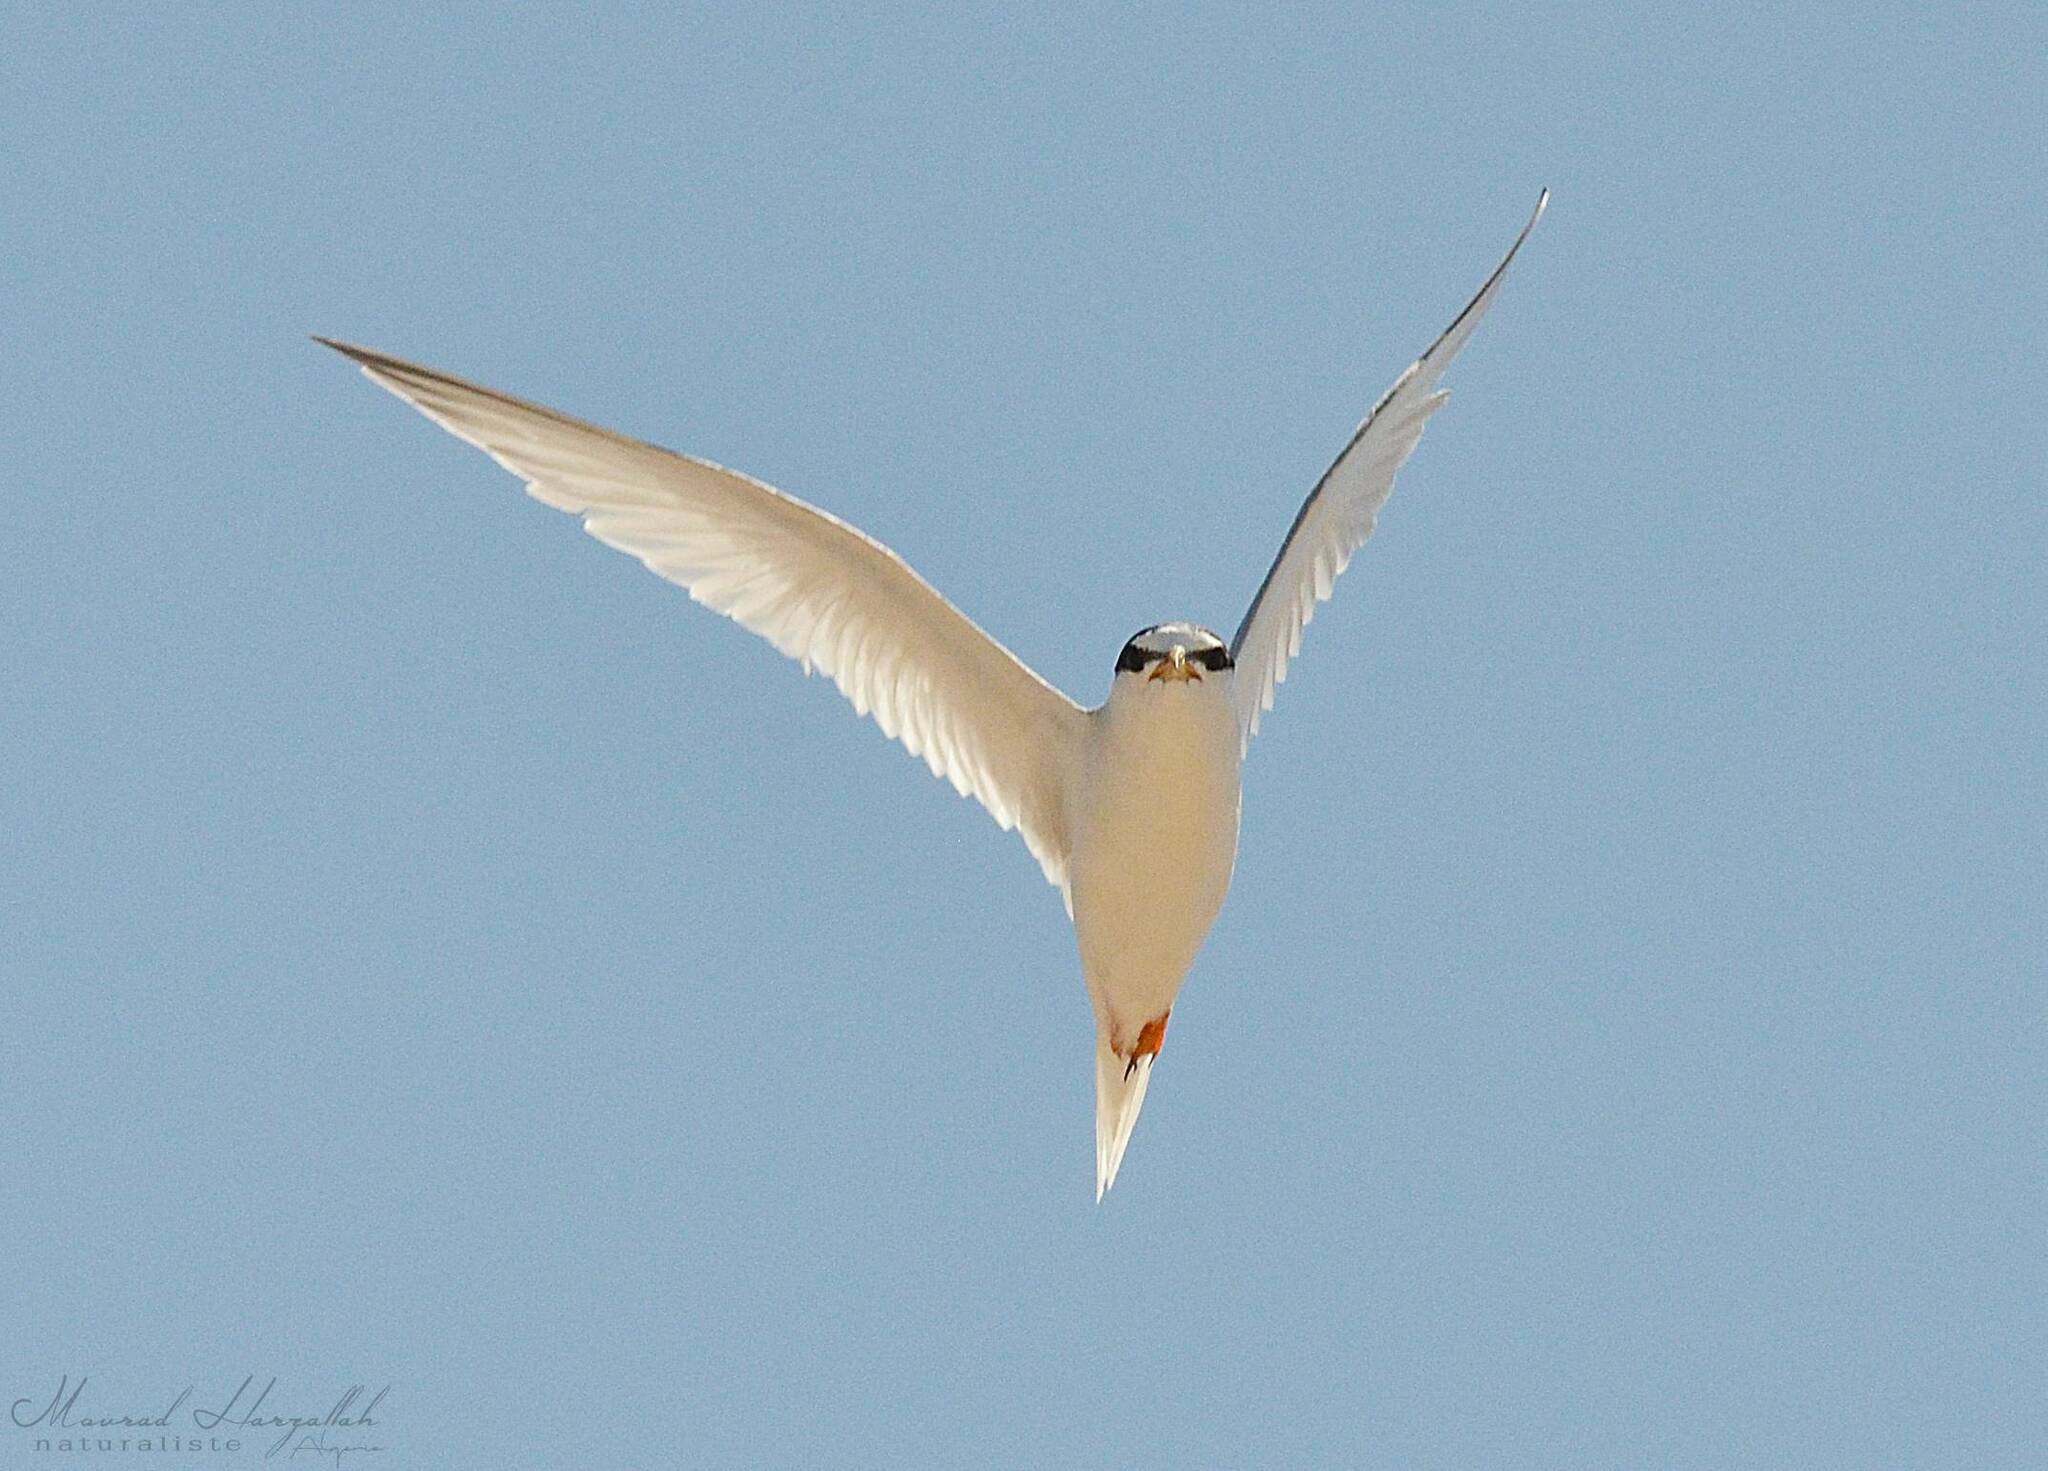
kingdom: Animalia
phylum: Chordata
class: Aves
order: Charadriiformes
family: Laridae
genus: Sternula
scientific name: Sternula albifrons
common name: Little tern
